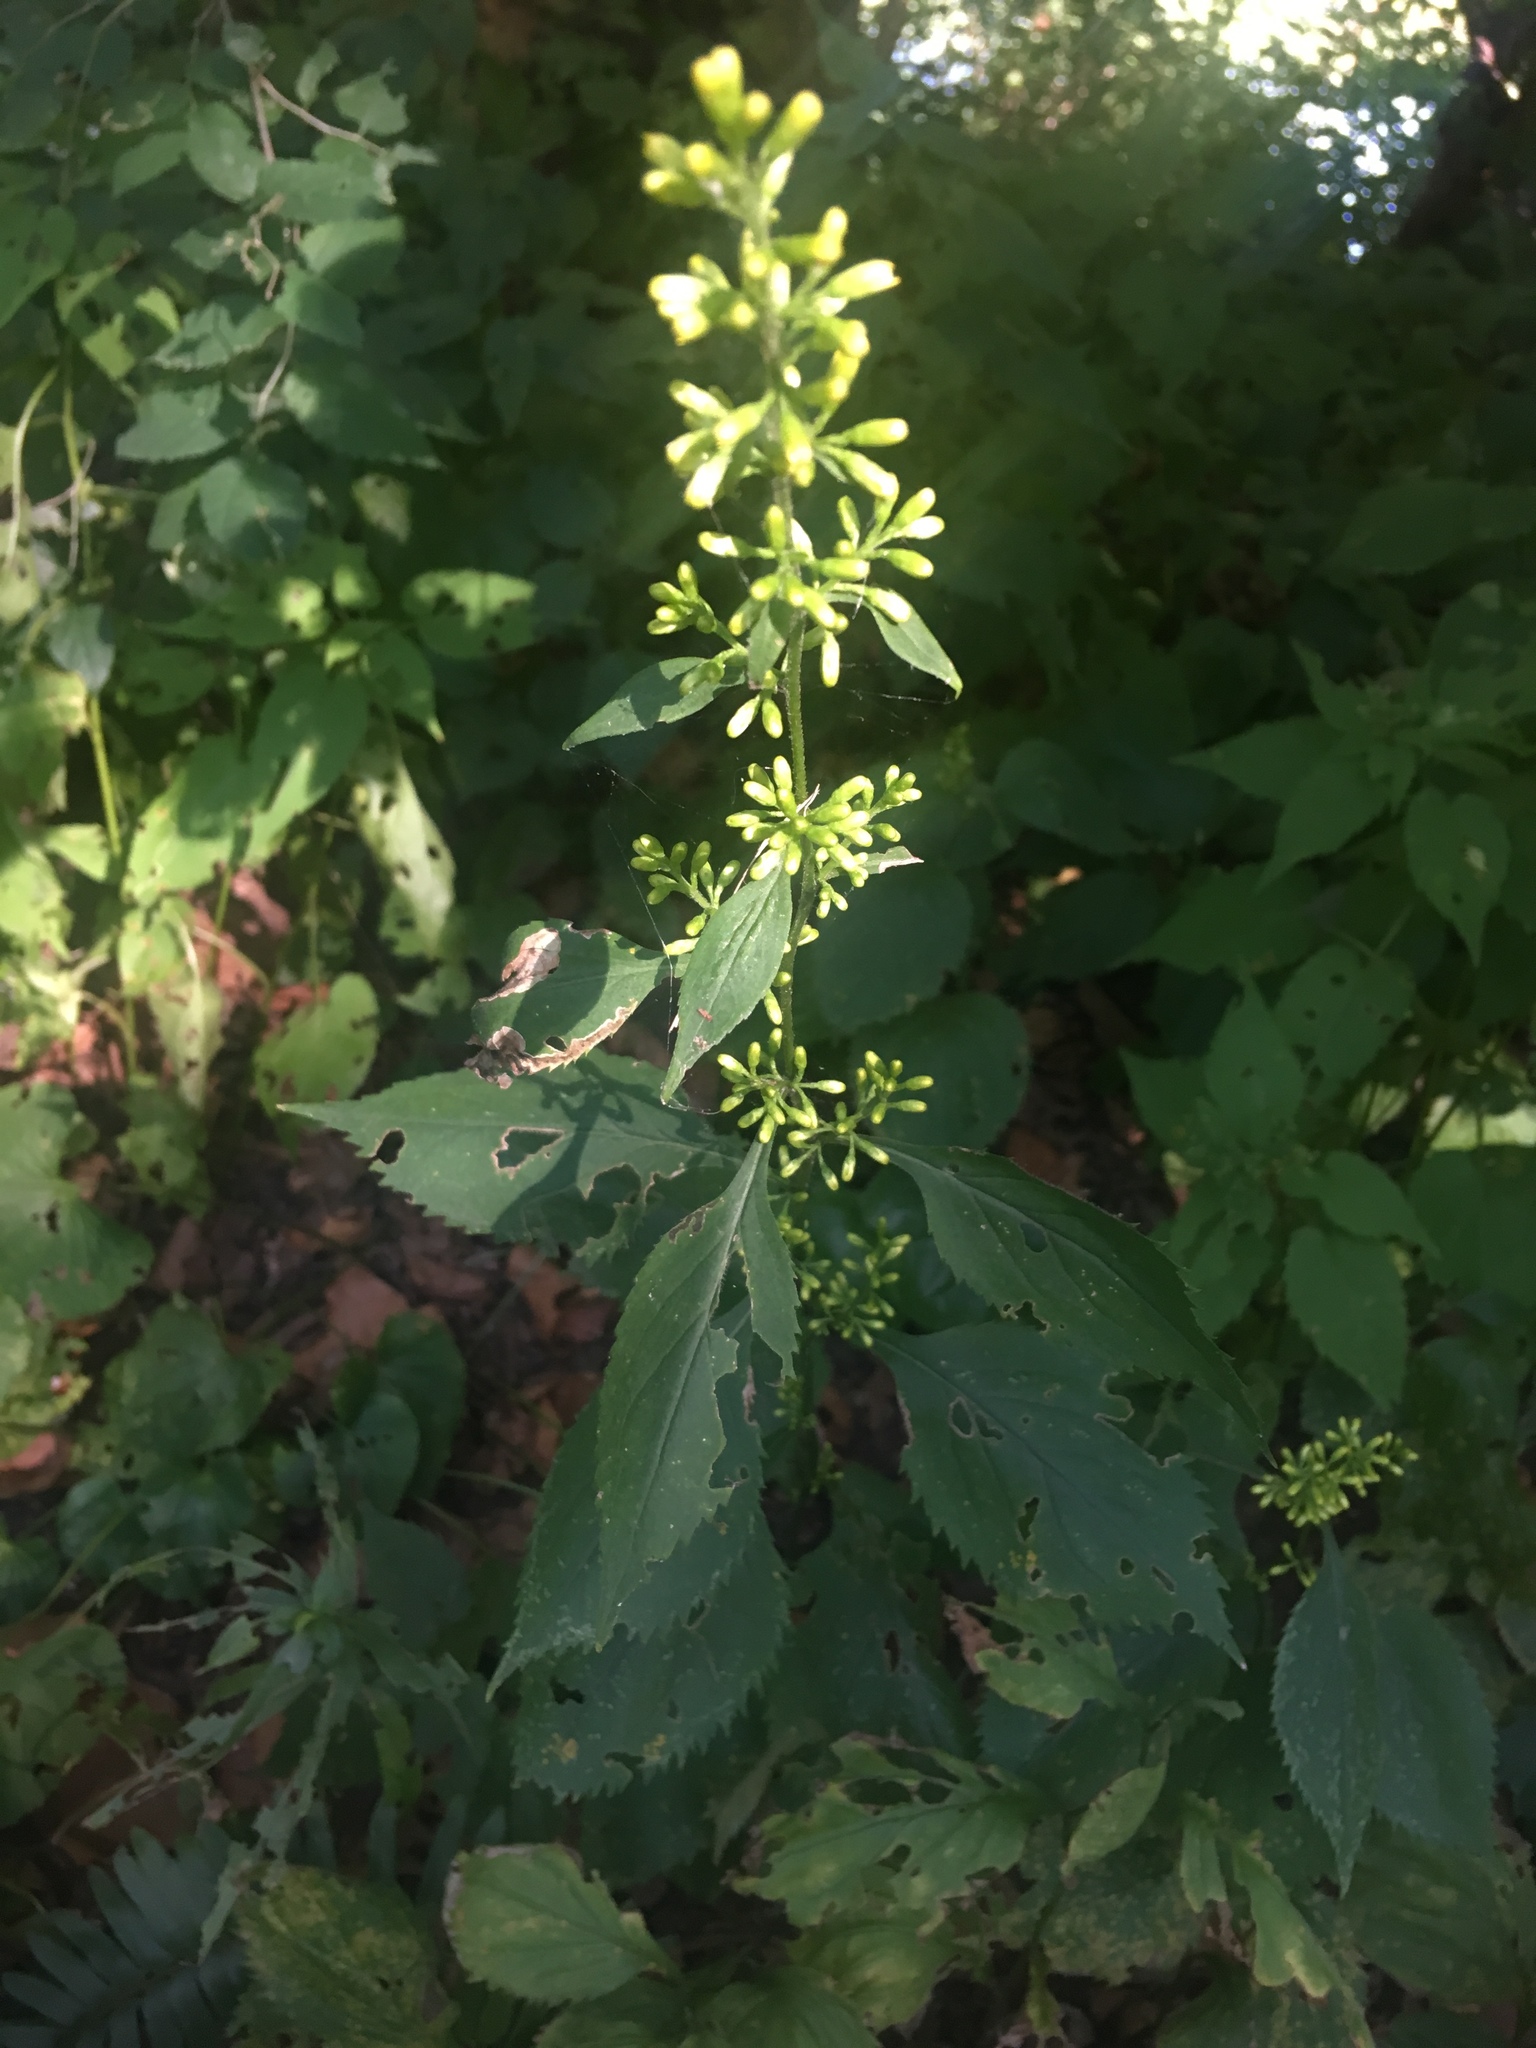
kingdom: Plantae
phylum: Tracheophyta
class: Magnoliopsida
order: Asterales
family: Asteraceae
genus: Solidago
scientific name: Solidago flexicaulis
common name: Zig-zag goldenrod
